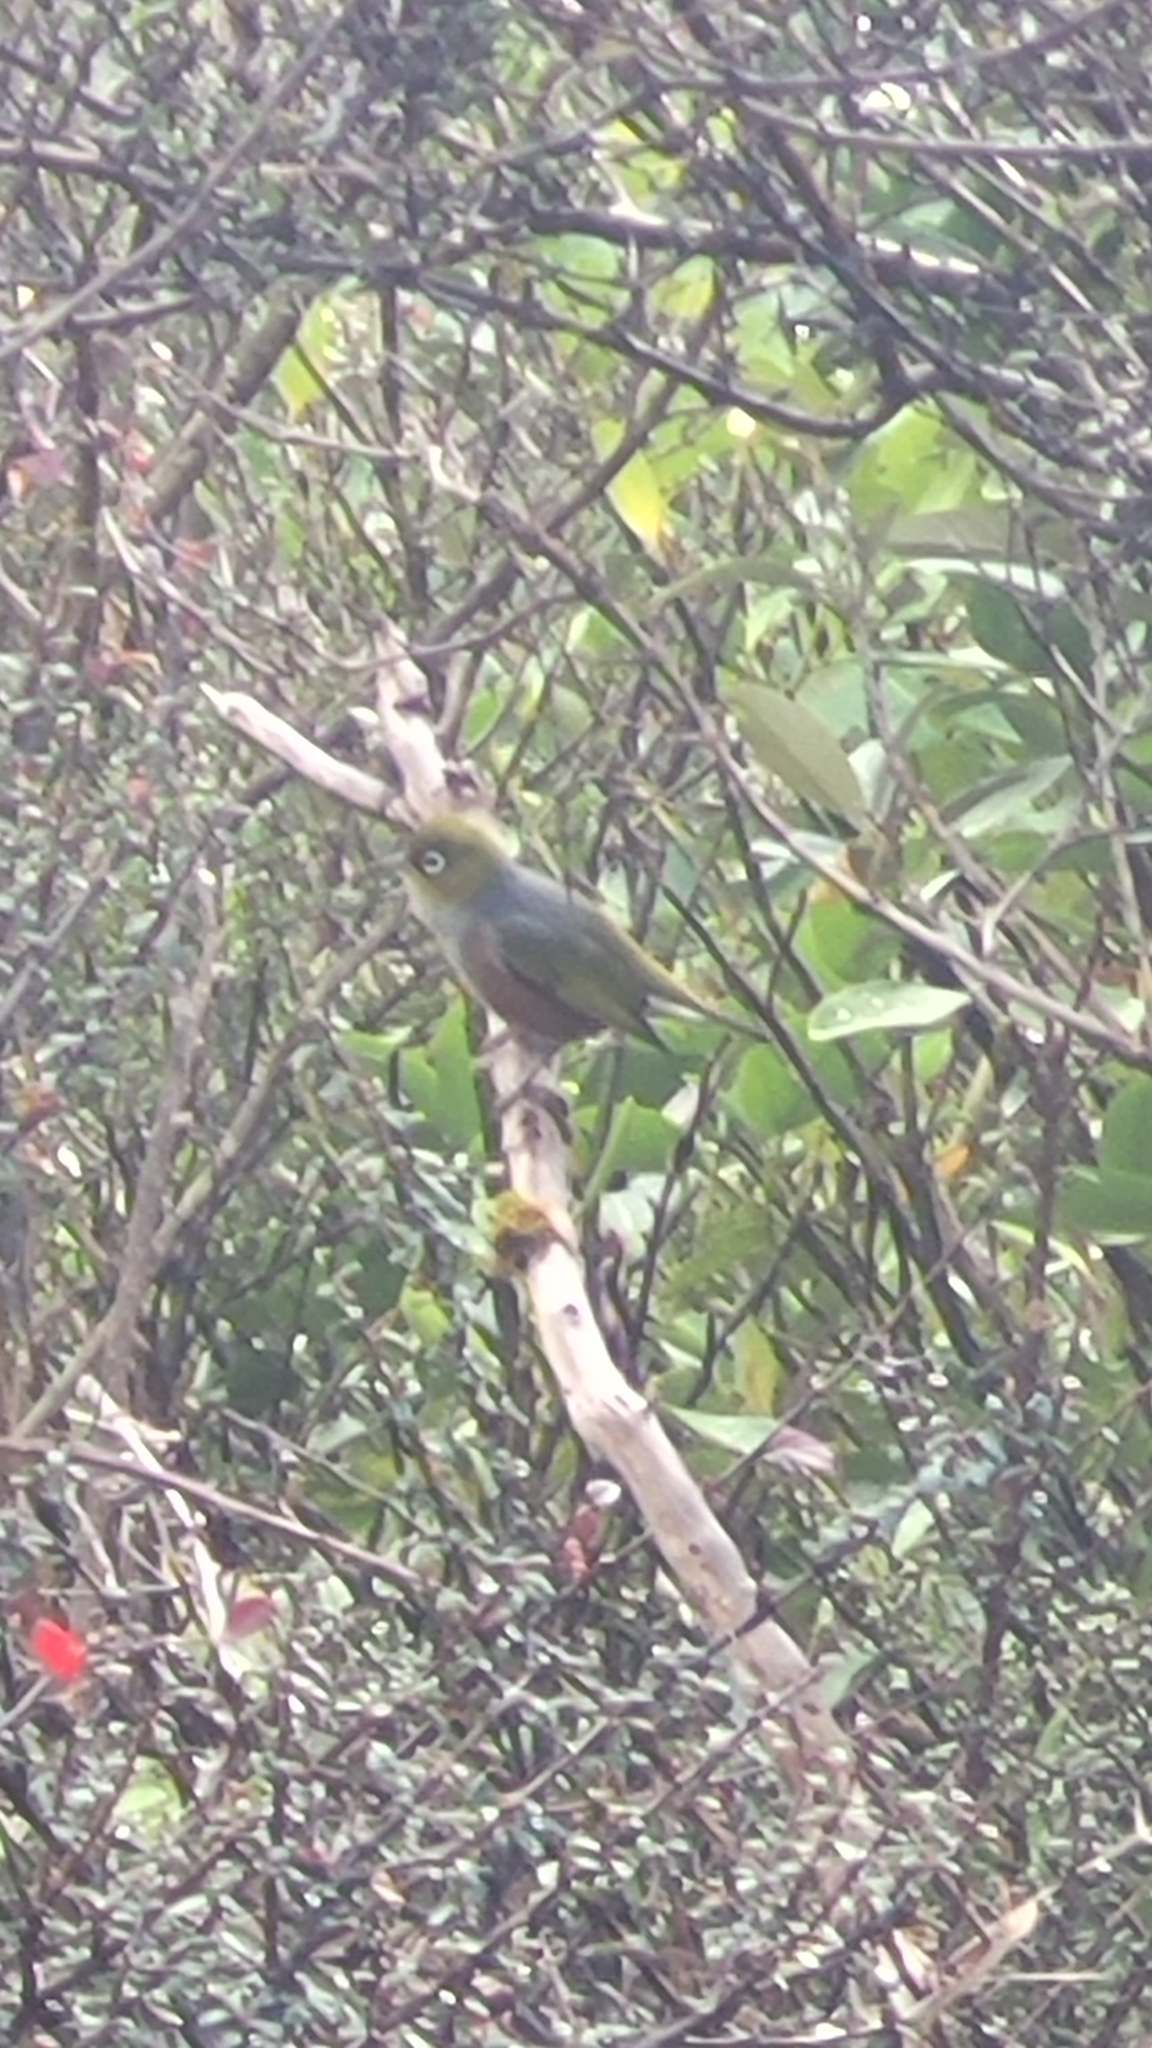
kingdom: Animalia
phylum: Chordata
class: Aves
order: Passeriformes
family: Zosteropidae
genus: Zosterops
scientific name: Zosterops lateralis
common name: Silvereye
